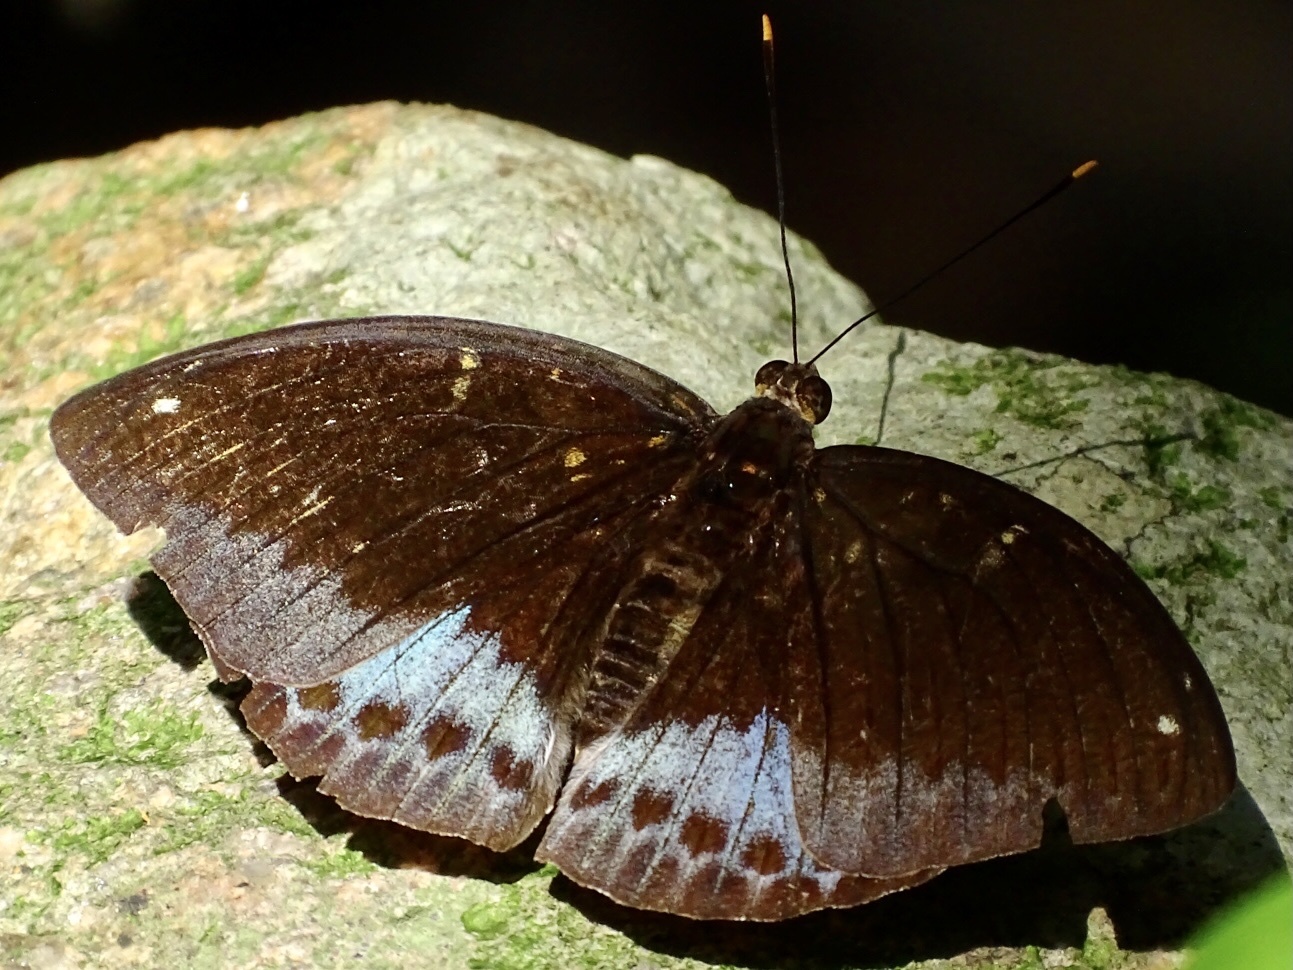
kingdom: Animalia
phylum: Arthropoda
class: Insecta
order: Lepidoptera
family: Nymphalidae
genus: Lexias
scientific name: Lexias pardalis
